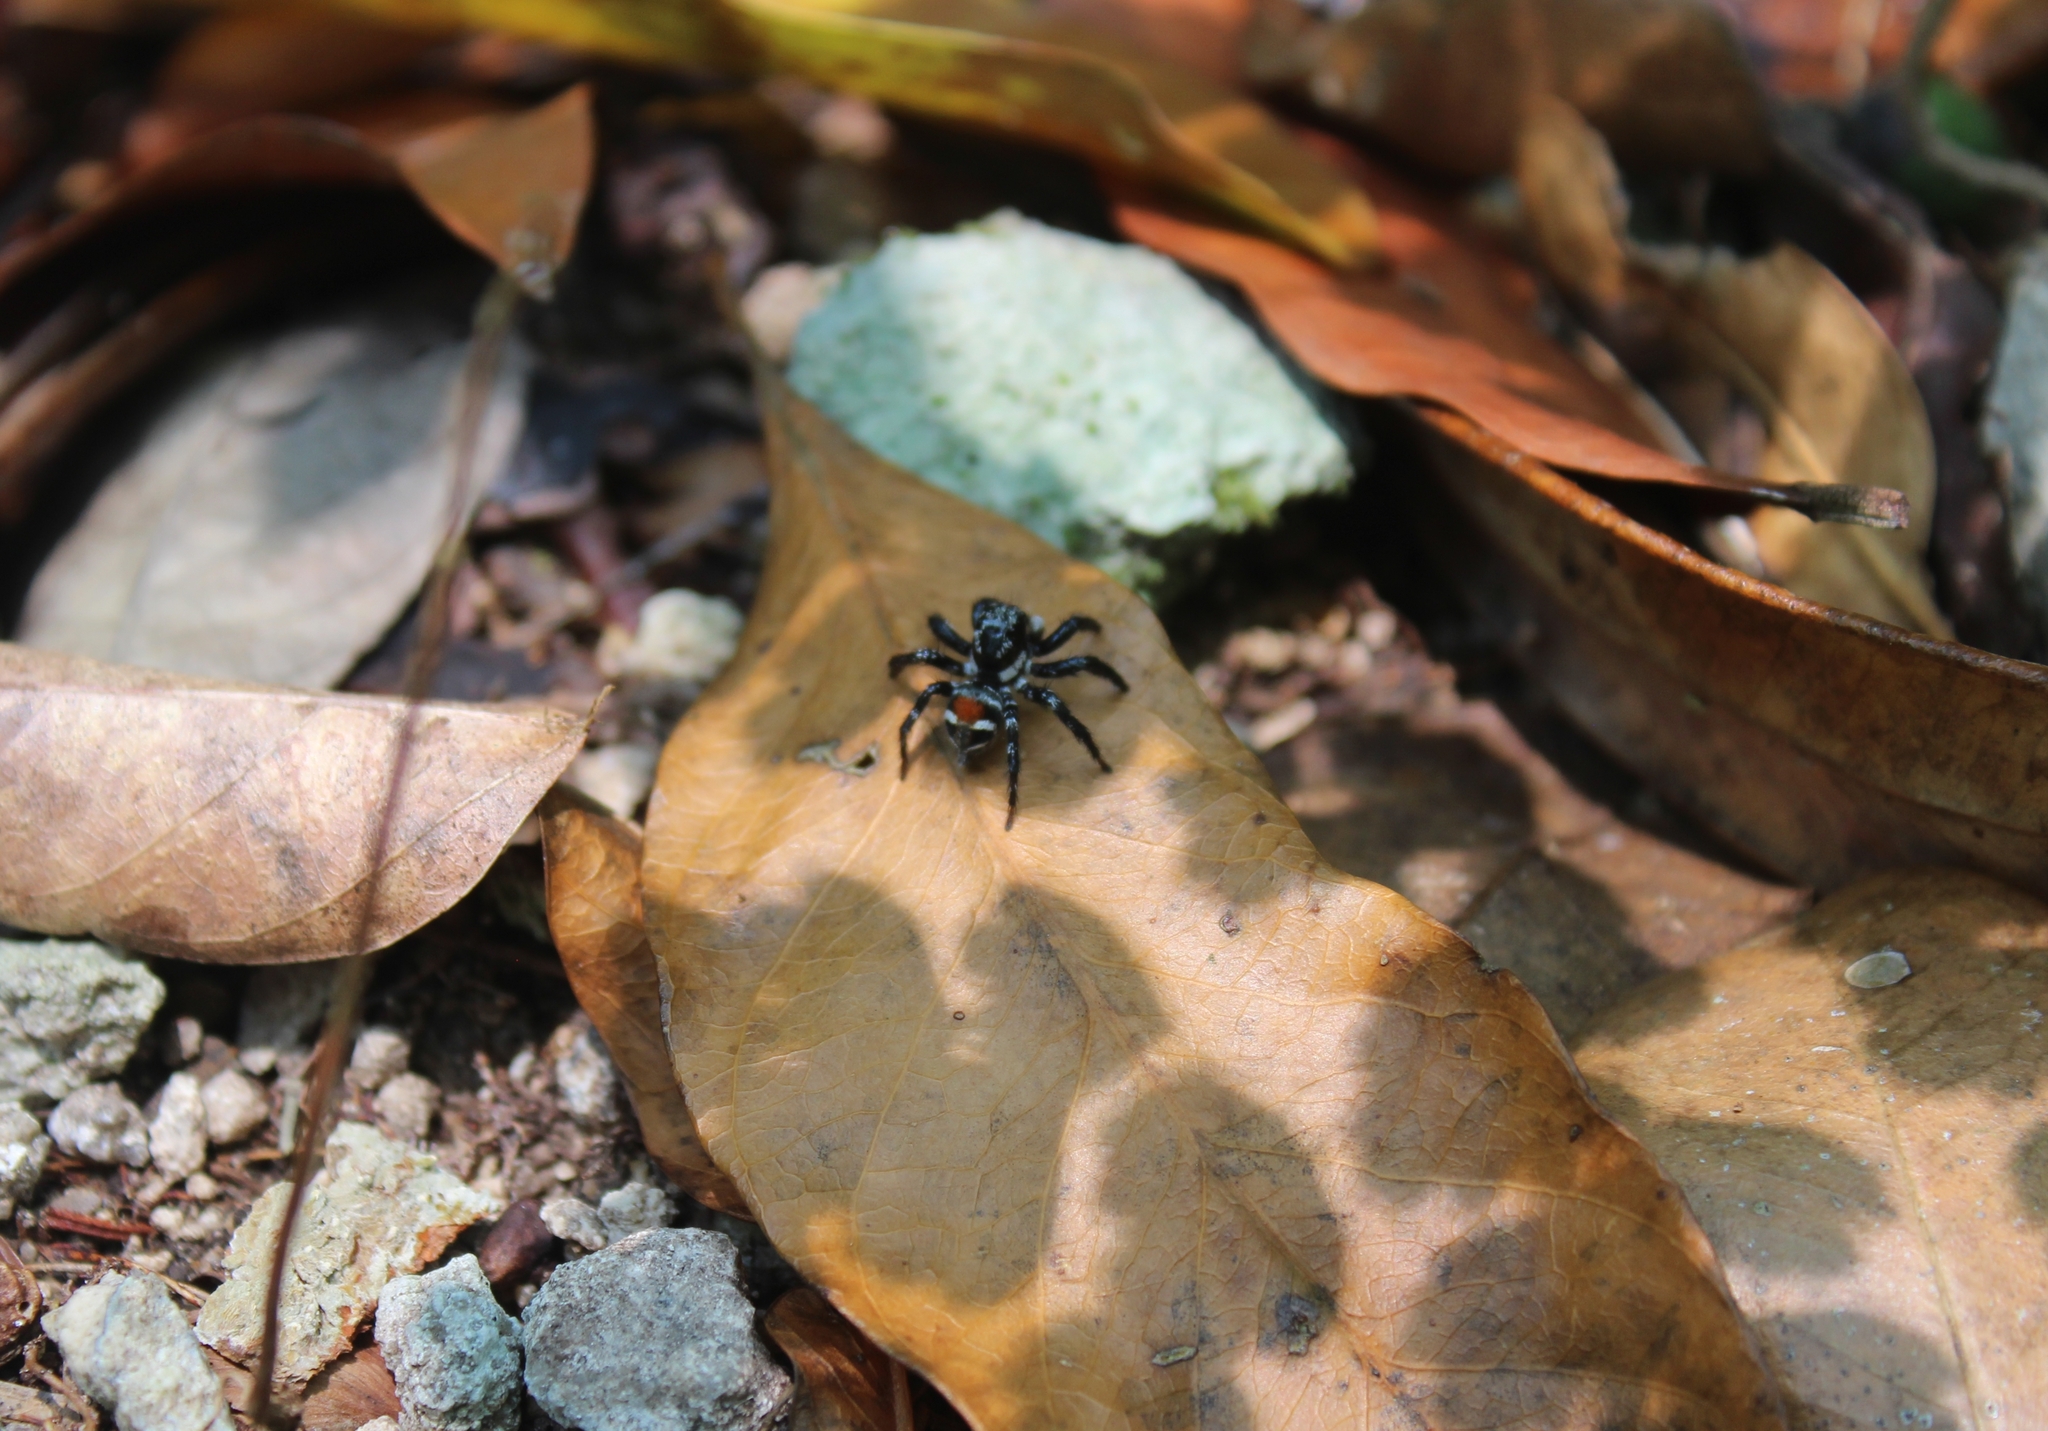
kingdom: Animalia
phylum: Arthropoda
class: Arachnida
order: Araneae
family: Salticidae
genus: Corythalia
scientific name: Corythalia opima
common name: Jumping spiders
